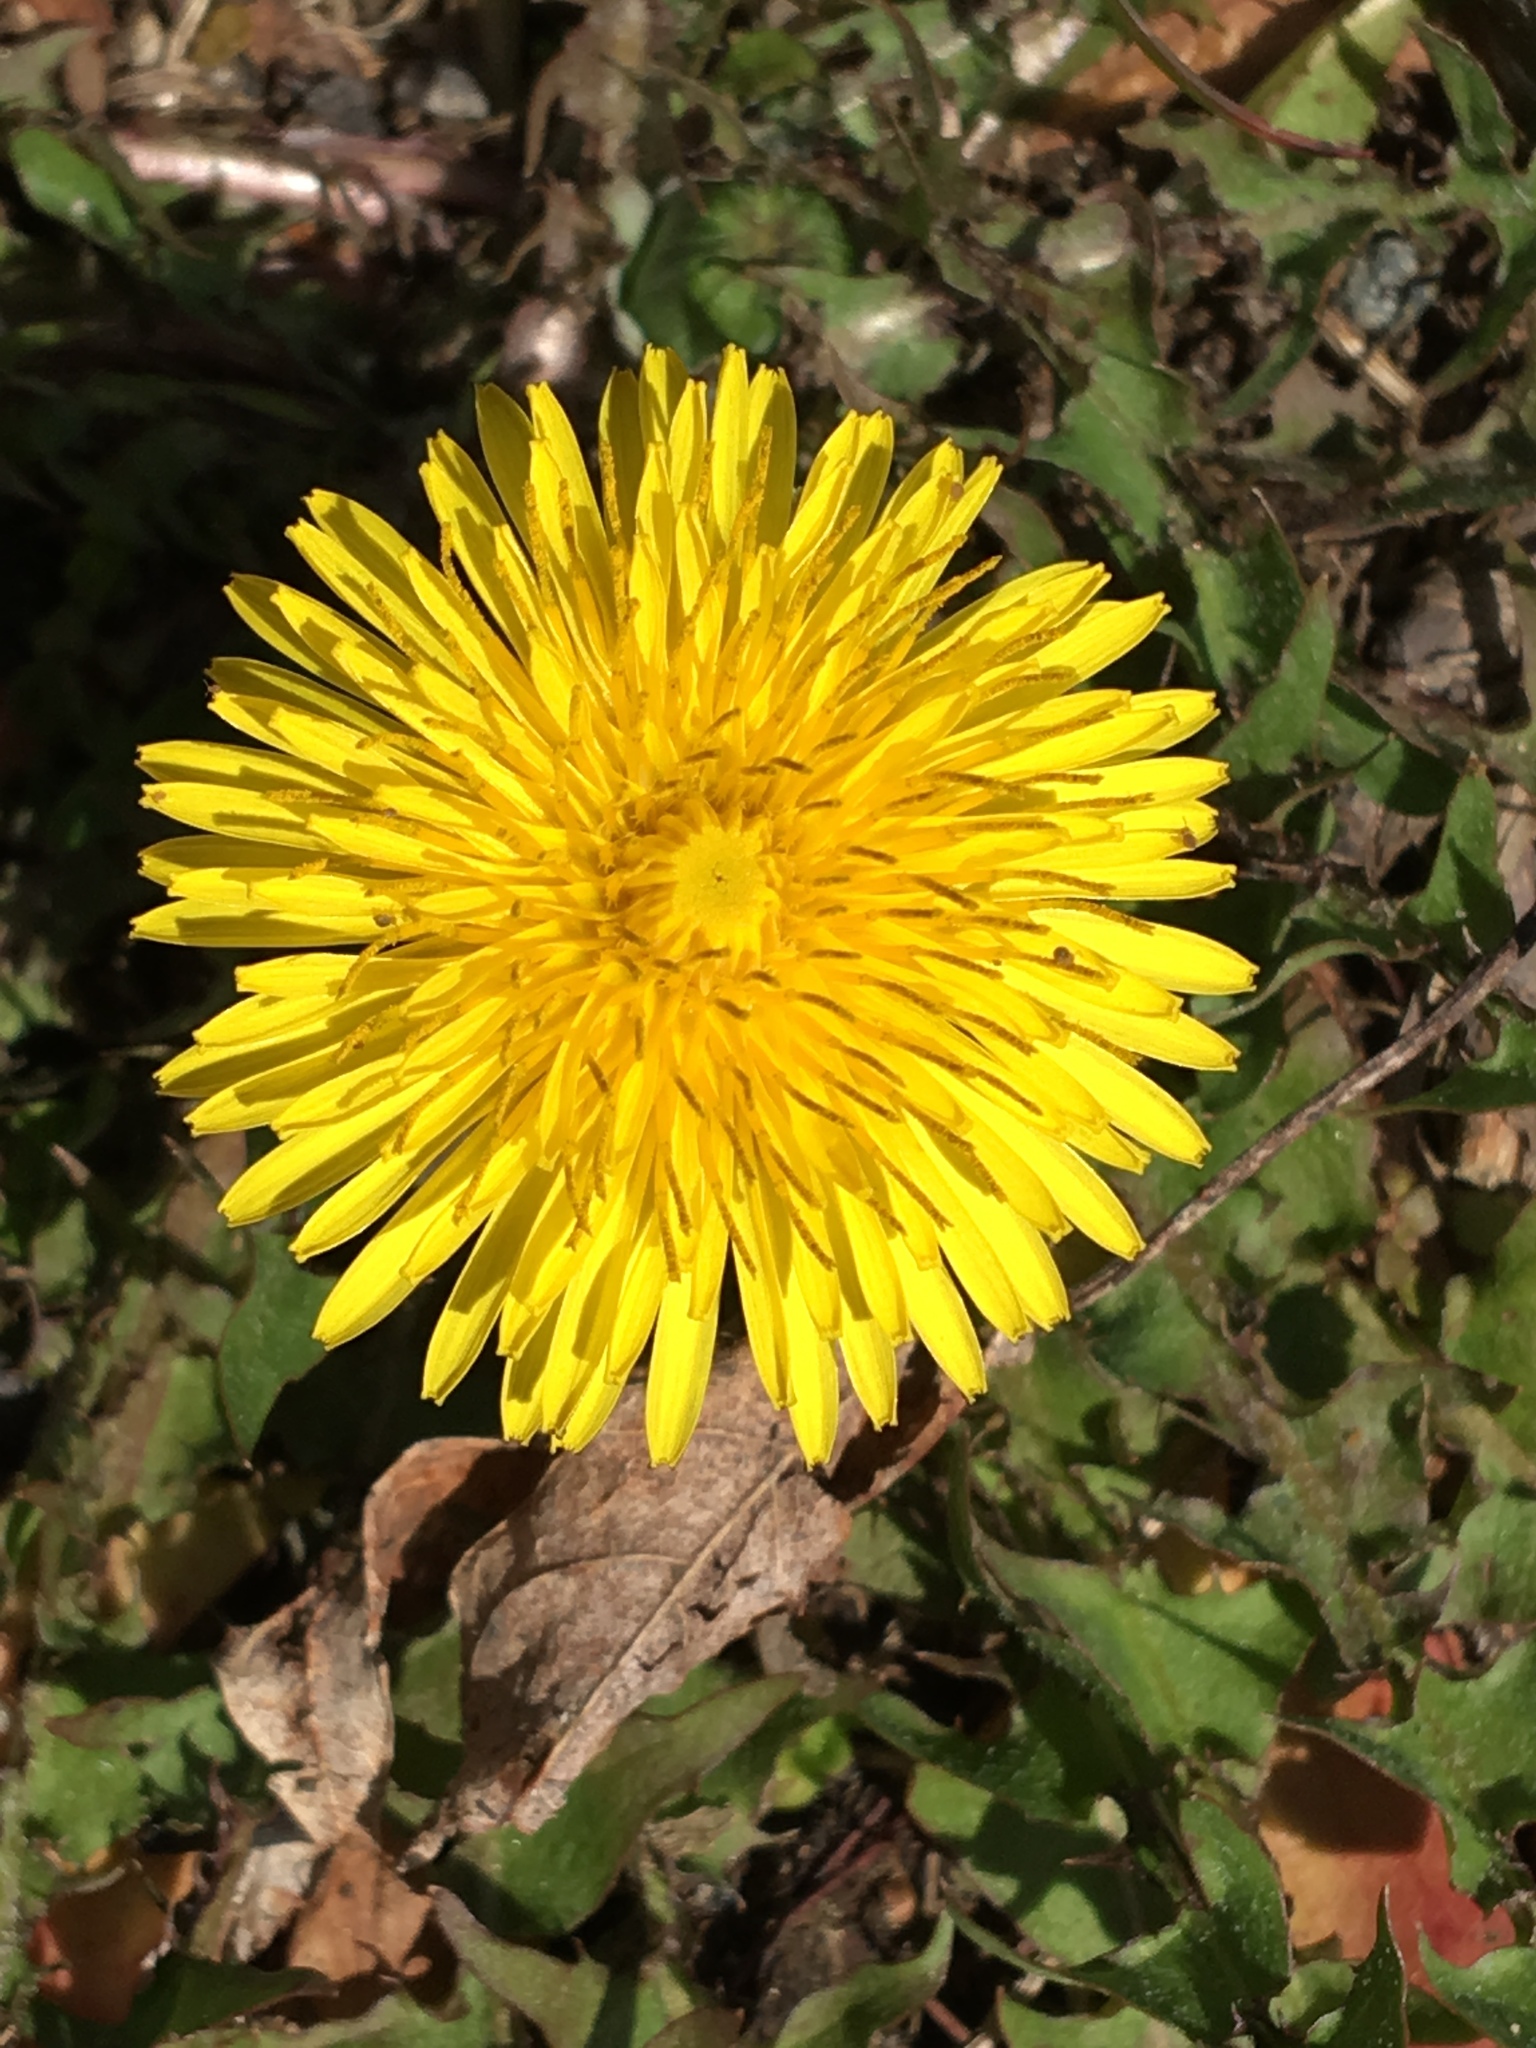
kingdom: Plantae
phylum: Tracheophyta
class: Magnoliopsida
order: Asterales
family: Asteraceae
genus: Taraxacum
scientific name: Taraxacum officinale
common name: Common dandelion
